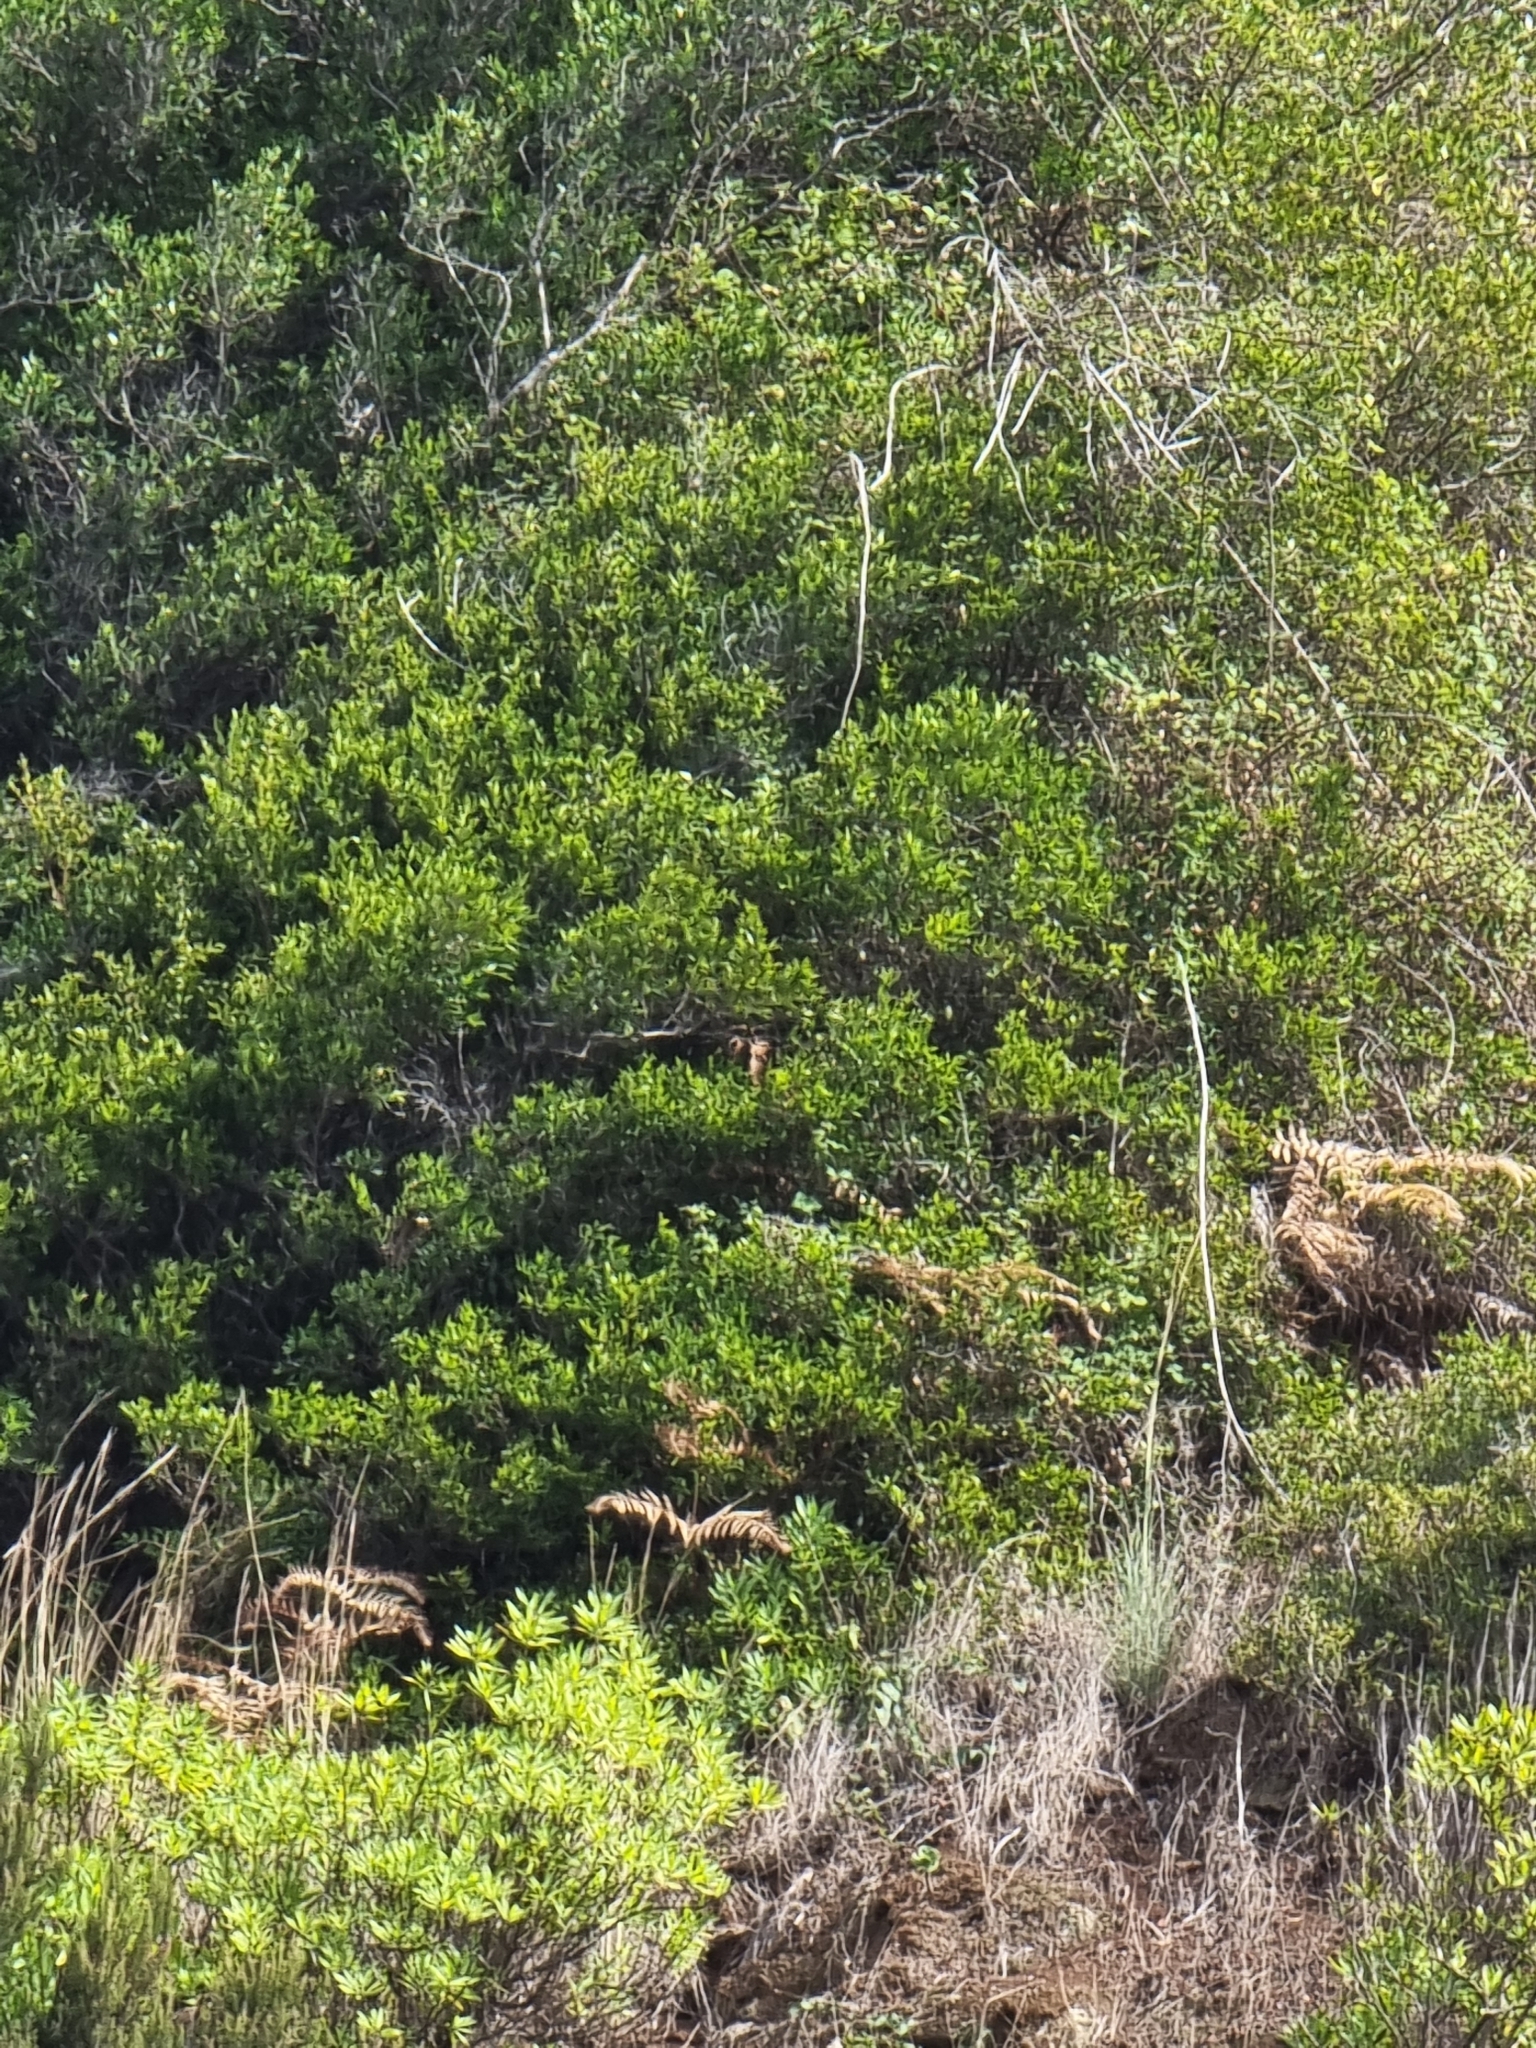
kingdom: Plantae
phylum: Tracheophyta
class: Magnoliopsida
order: Myrtales
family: Myrtaceae
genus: Myrtus
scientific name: Myrtus communis
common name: Myrtle
